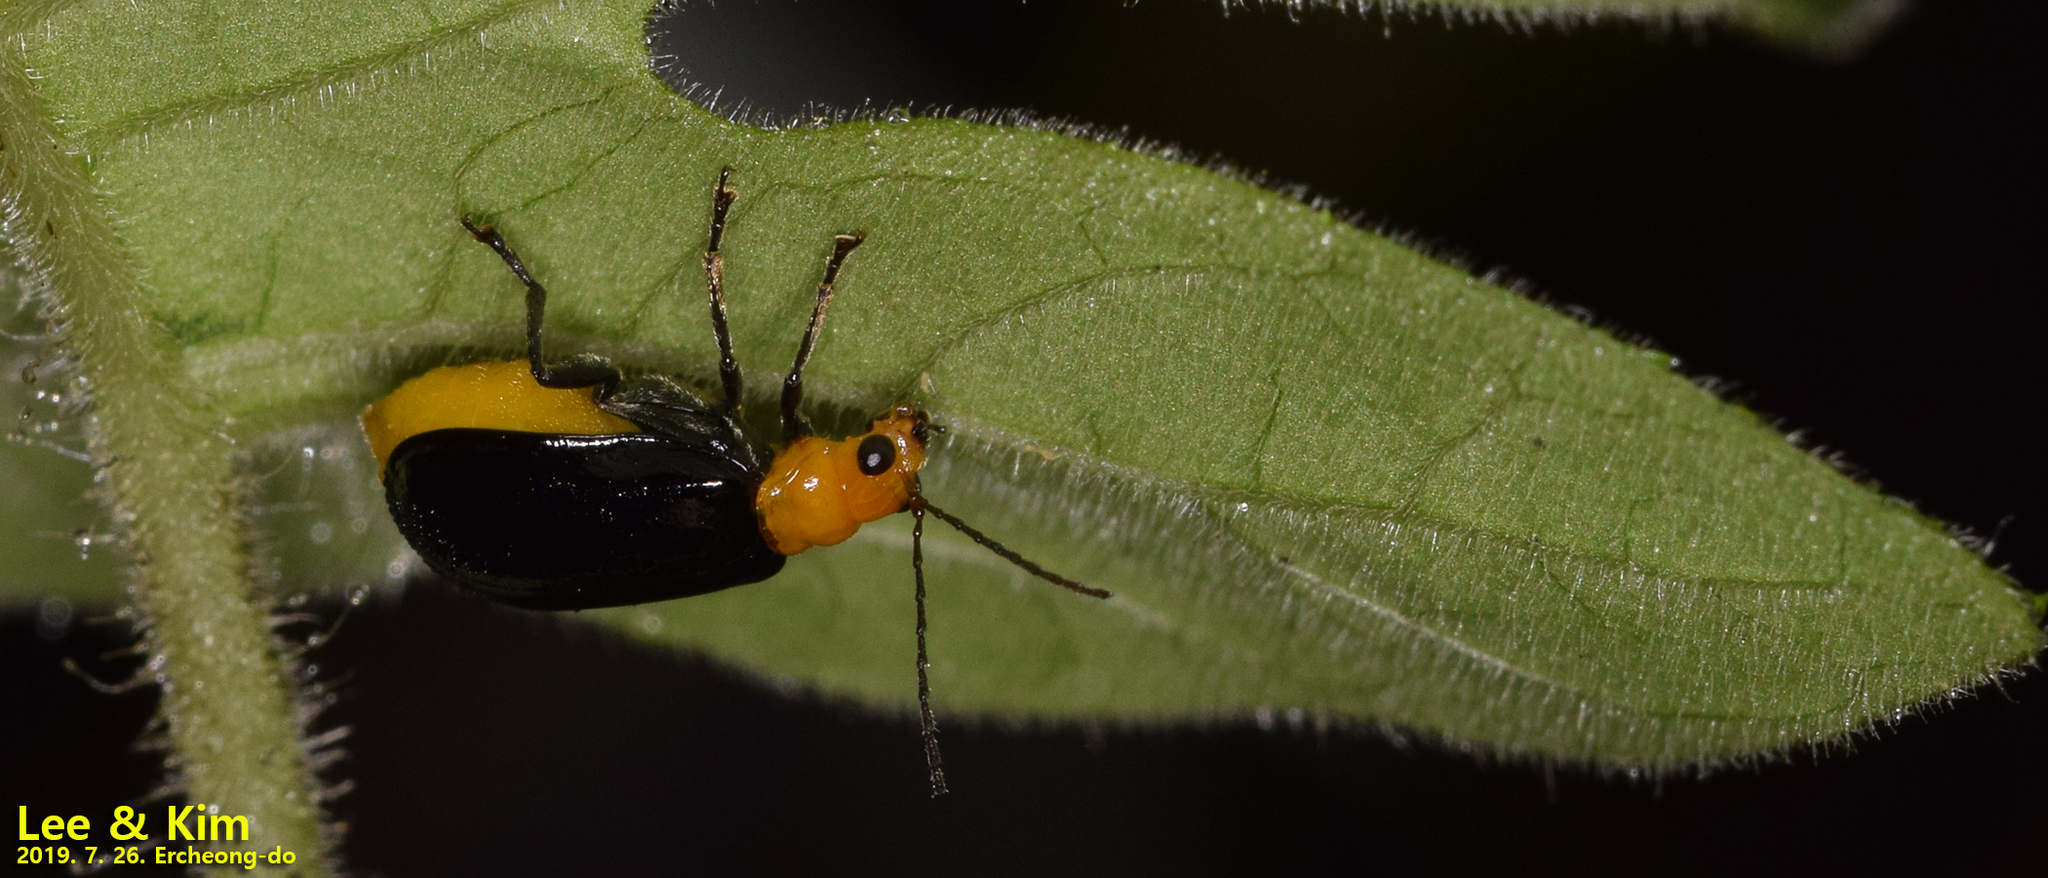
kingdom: Animalia
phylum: Arthropoda
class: Insecta
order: Coleoptera
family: Chrysomelidae
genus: Aulacophora
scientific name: Aulacophora nigripennis
